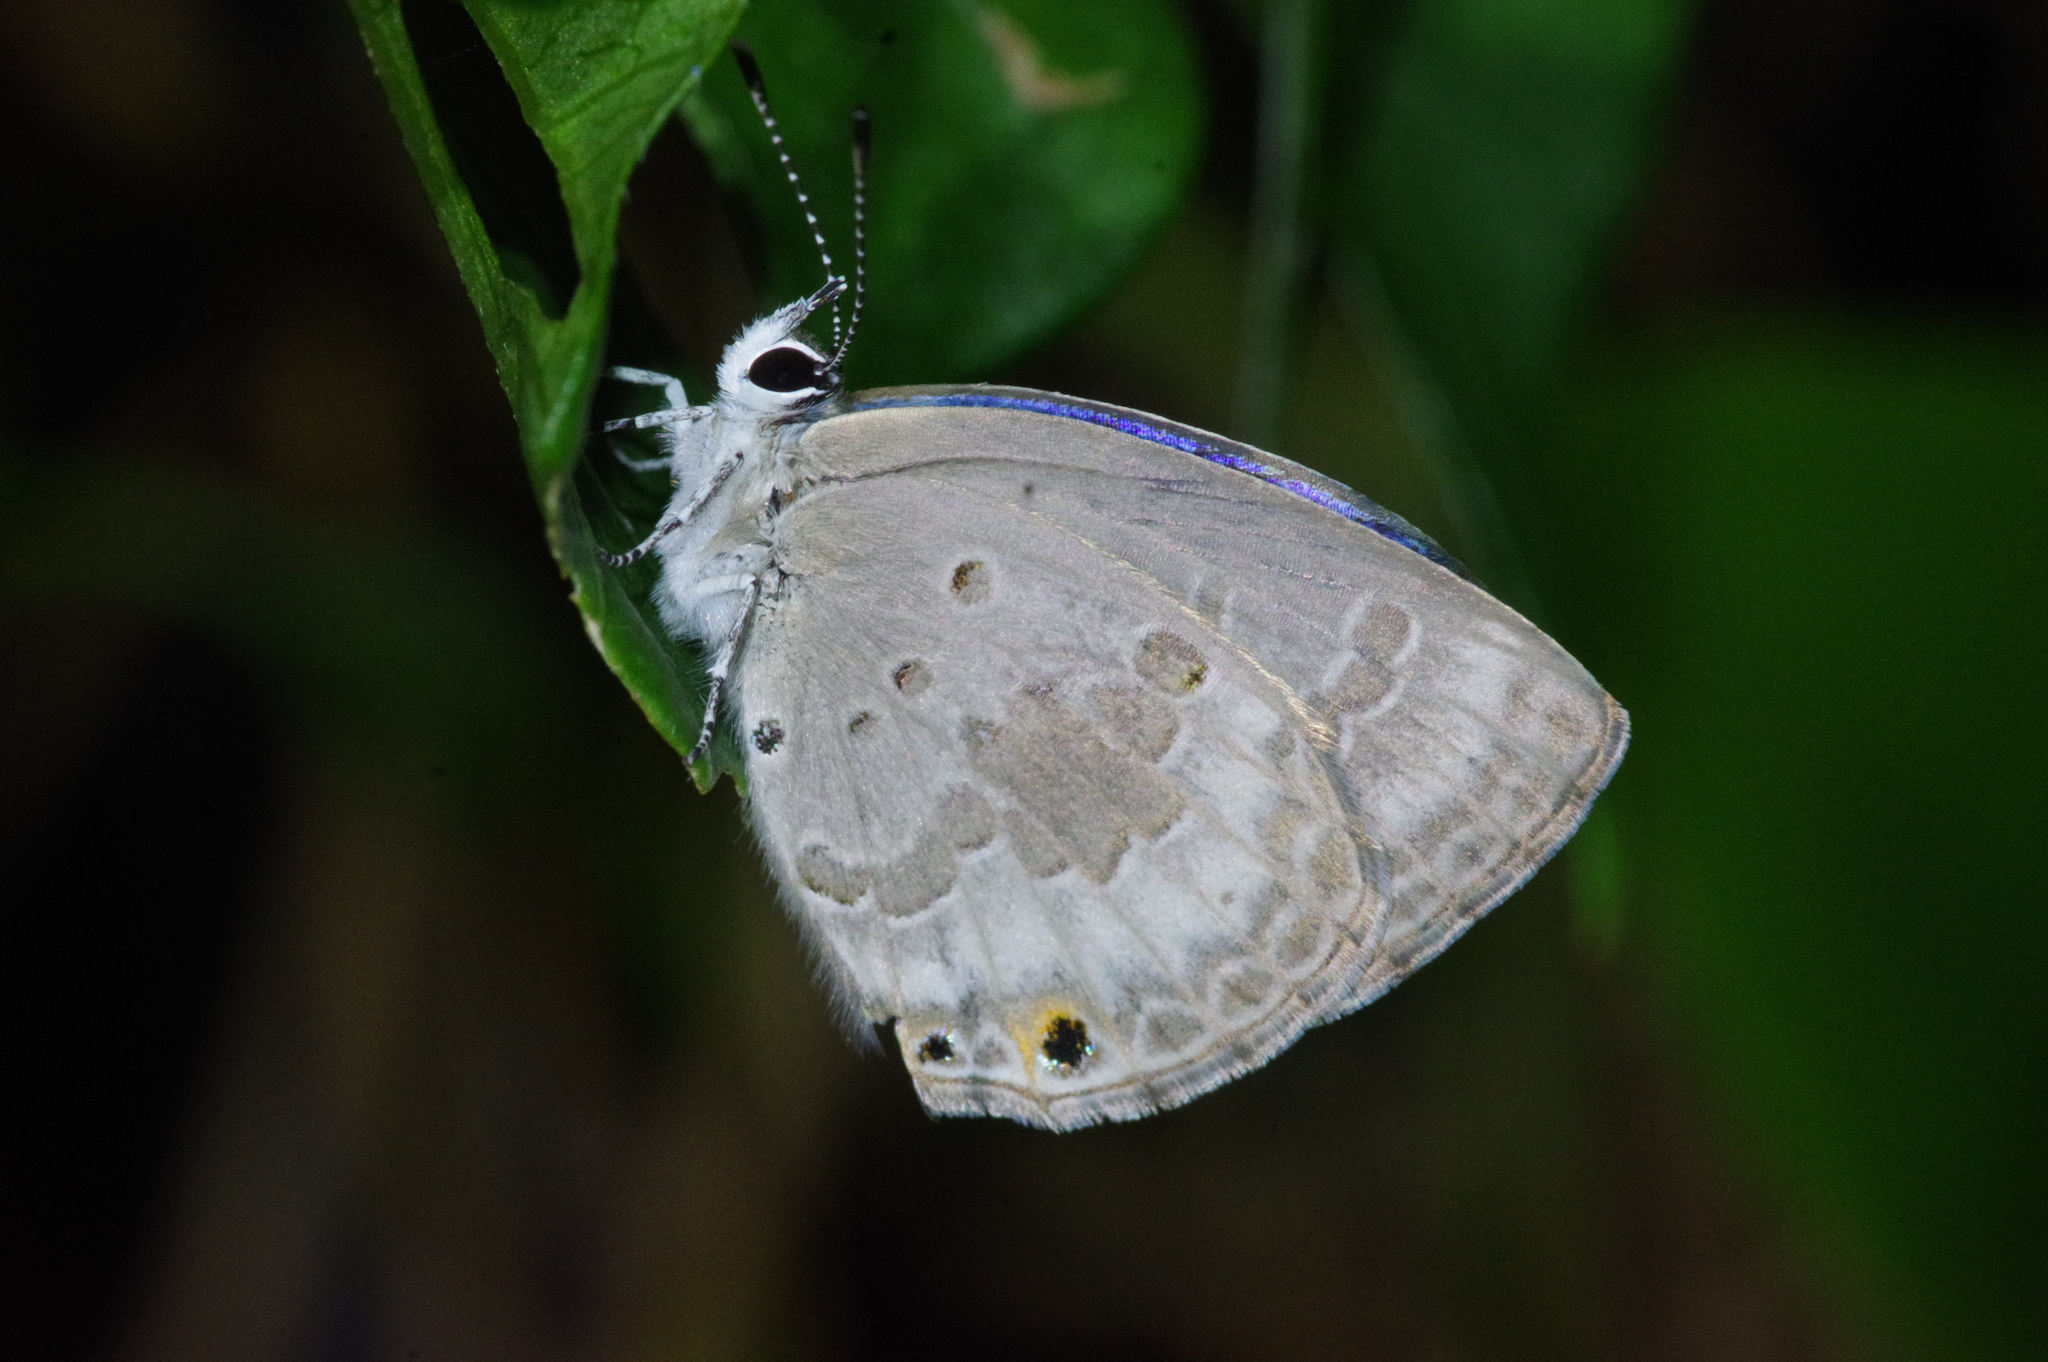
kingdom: Animalia
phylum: Arthropoda
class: Insecta
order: Lepidoptera
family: Lycaenidae
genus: Luthrodes
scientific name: Luthrodes pandava
